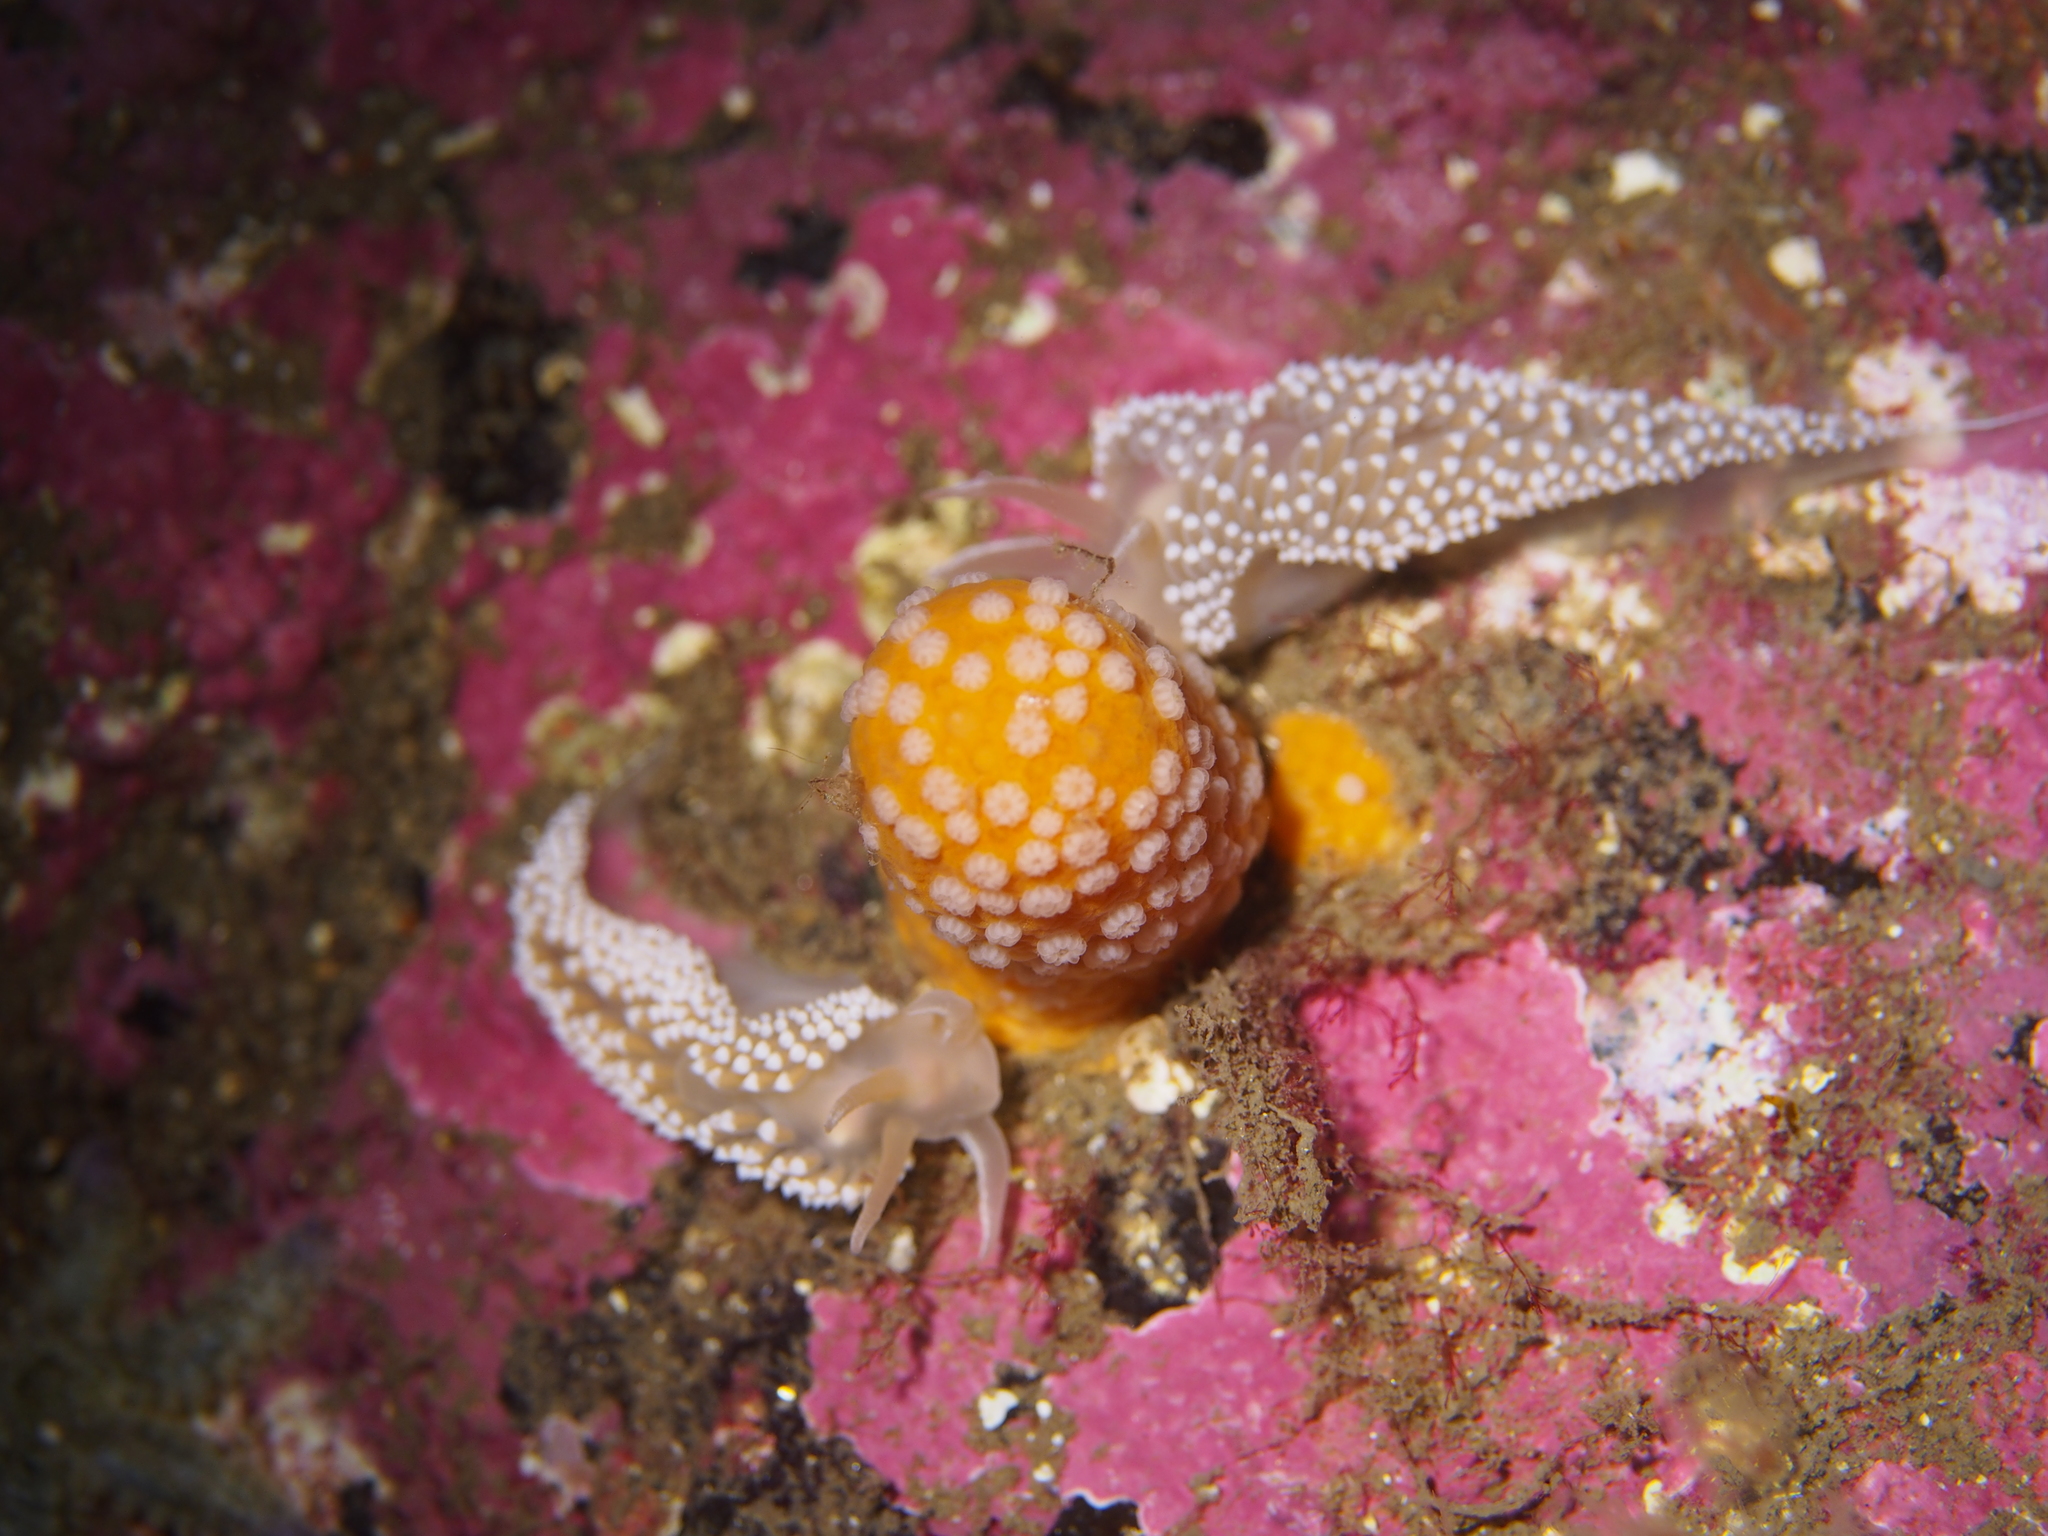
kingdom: Animalia
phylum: Mollusca
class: Gastropoda
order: Nudibranchia
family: Coryphellidae
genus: Coryphella
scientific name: Coryphella verrucosa
